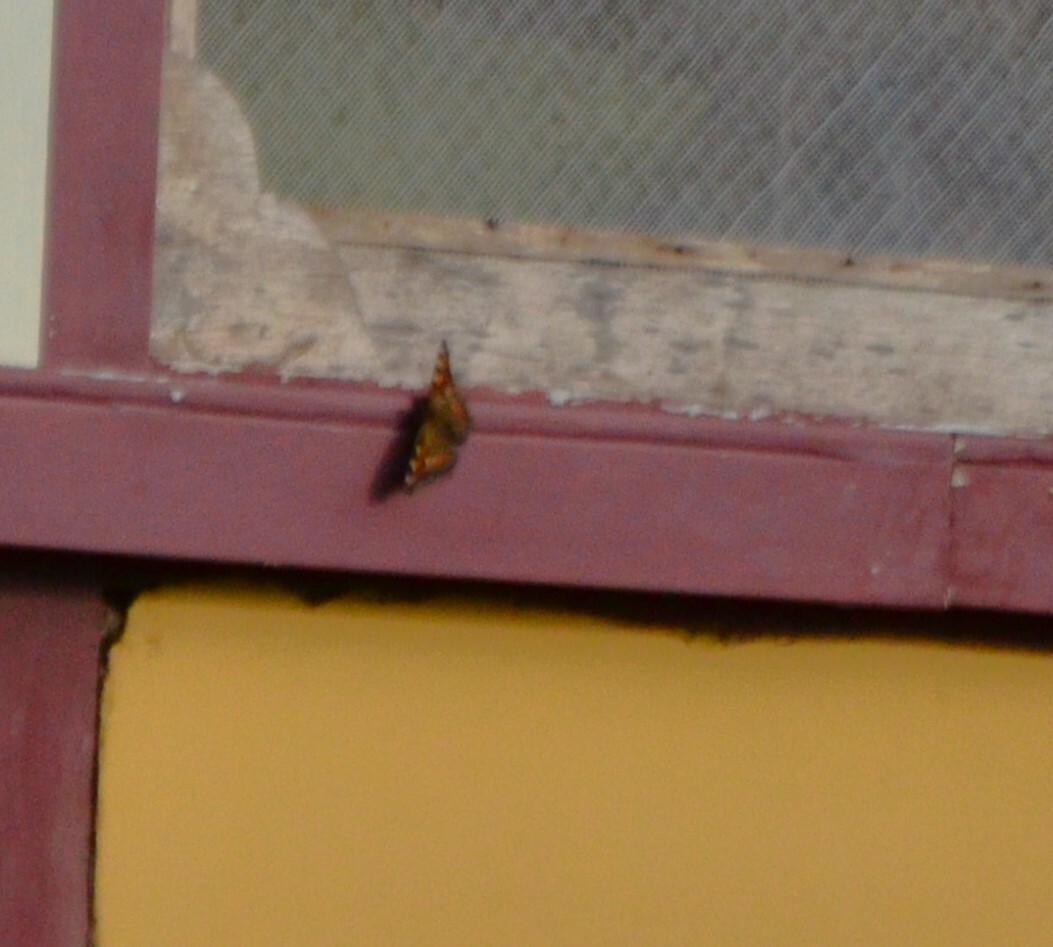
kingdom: Animalia
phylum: Arthropoda
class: Insecta
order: Lepidoptera
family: Nymphalidae
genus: Aglais
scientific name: Aglais caschmirensis
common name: Indian tortoiseshell
